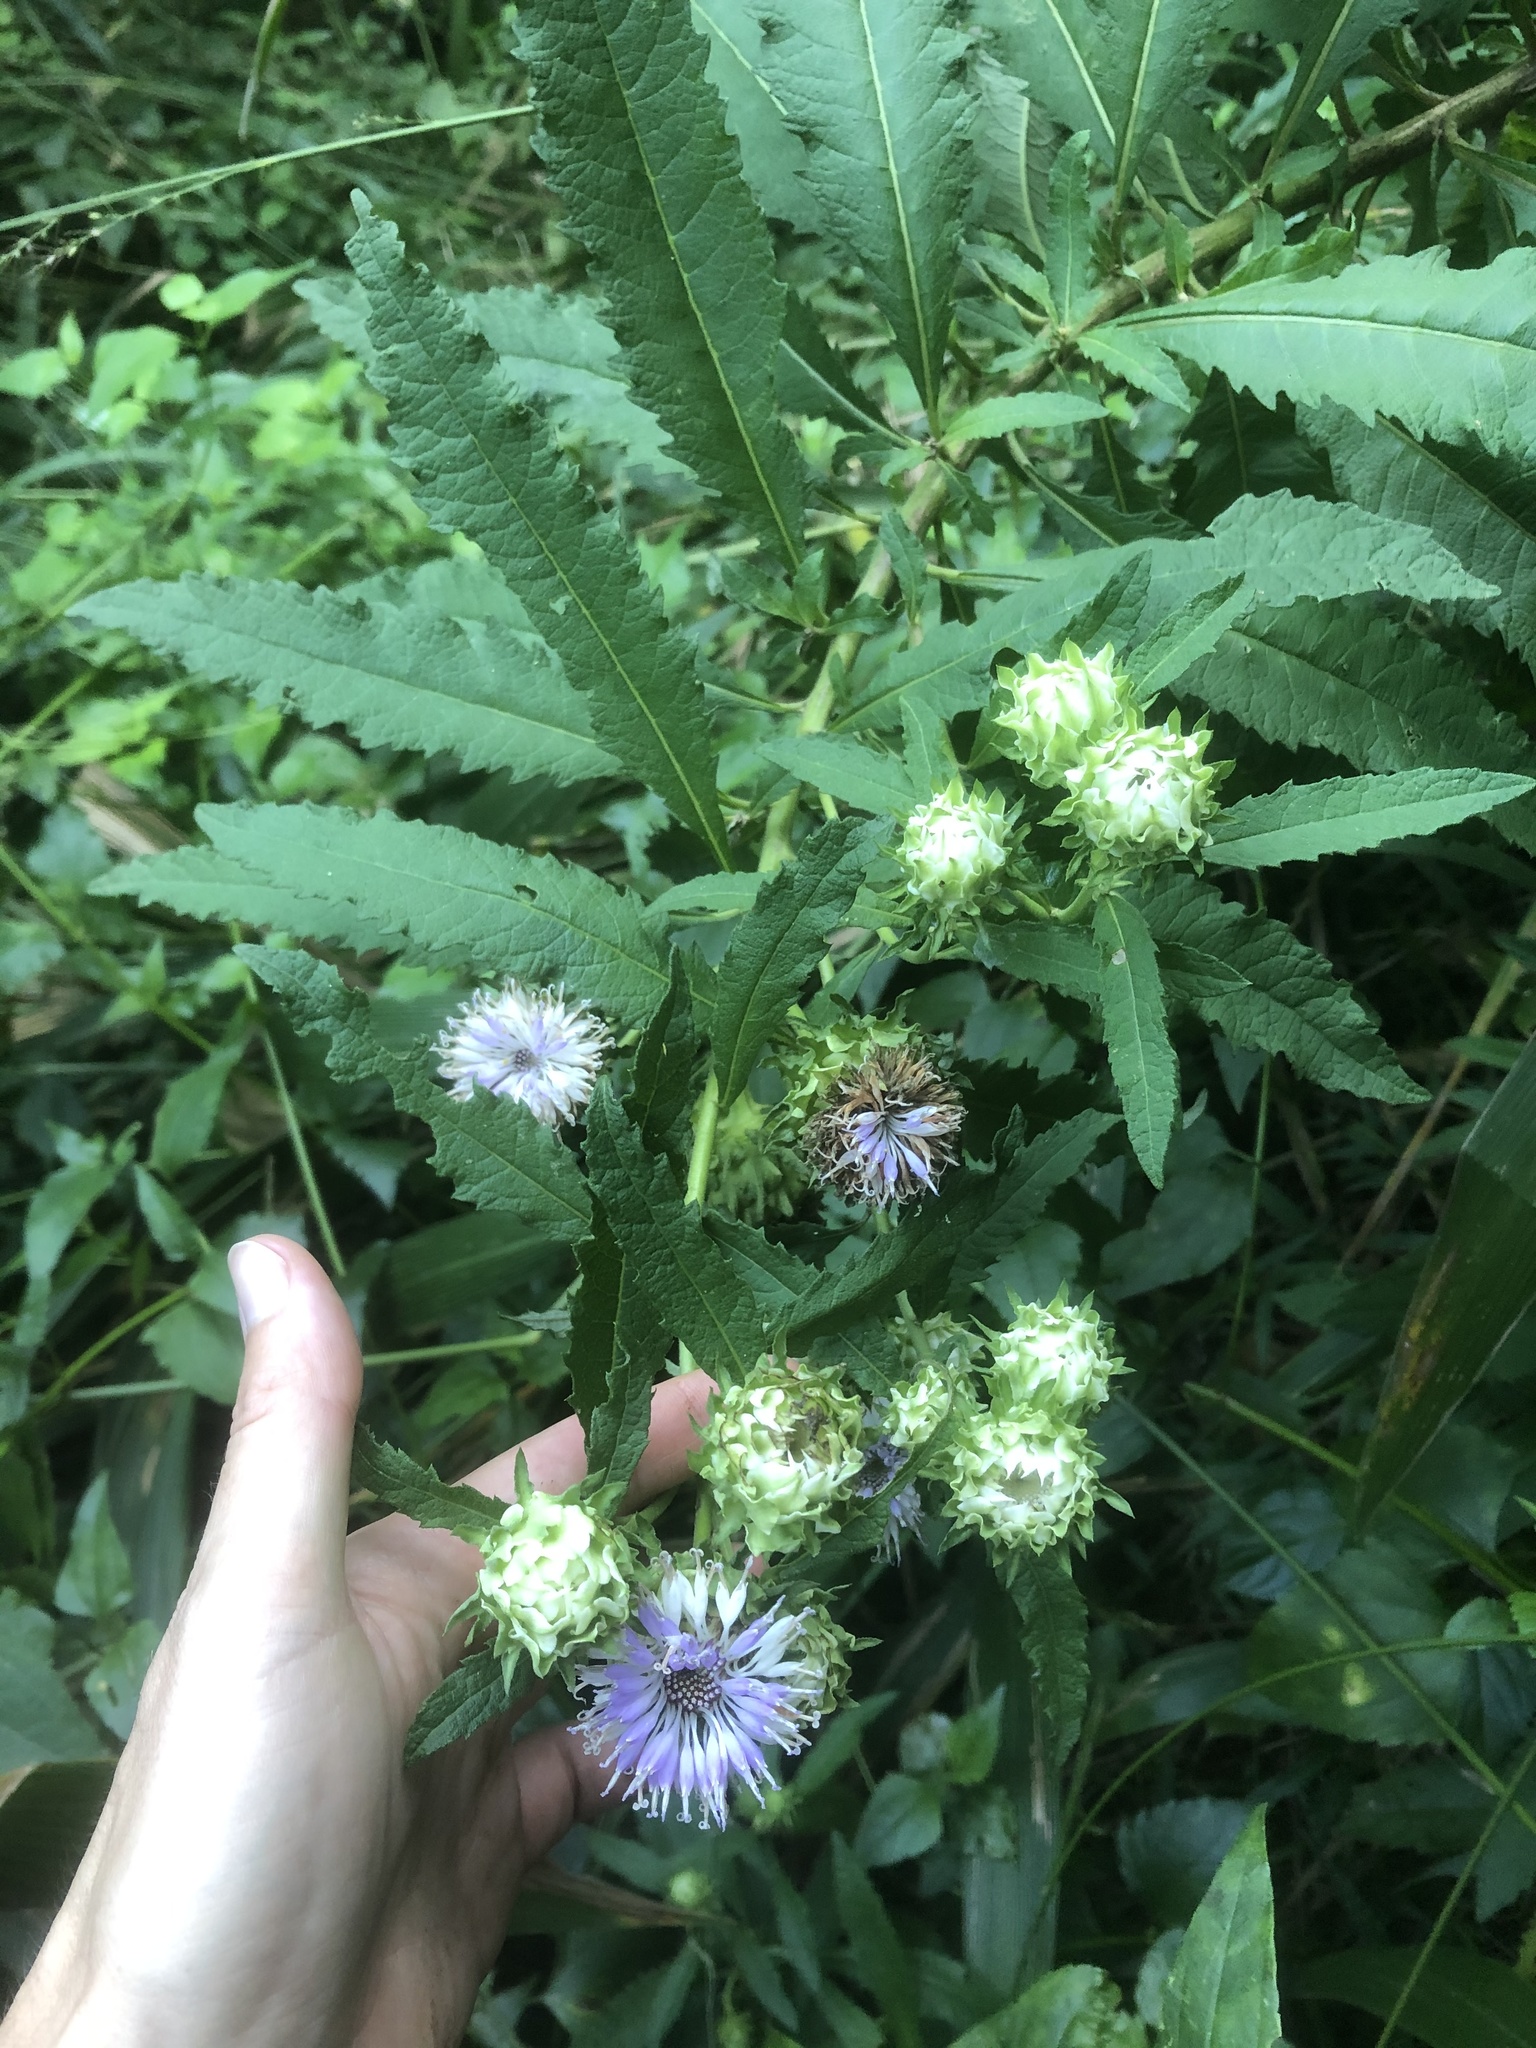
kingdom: Plantae
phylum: Tracheophyta
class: Magnoliopsida
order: Asterales
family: Asteraceae
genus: Baccharoides
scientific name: Baccharoides adoensis
